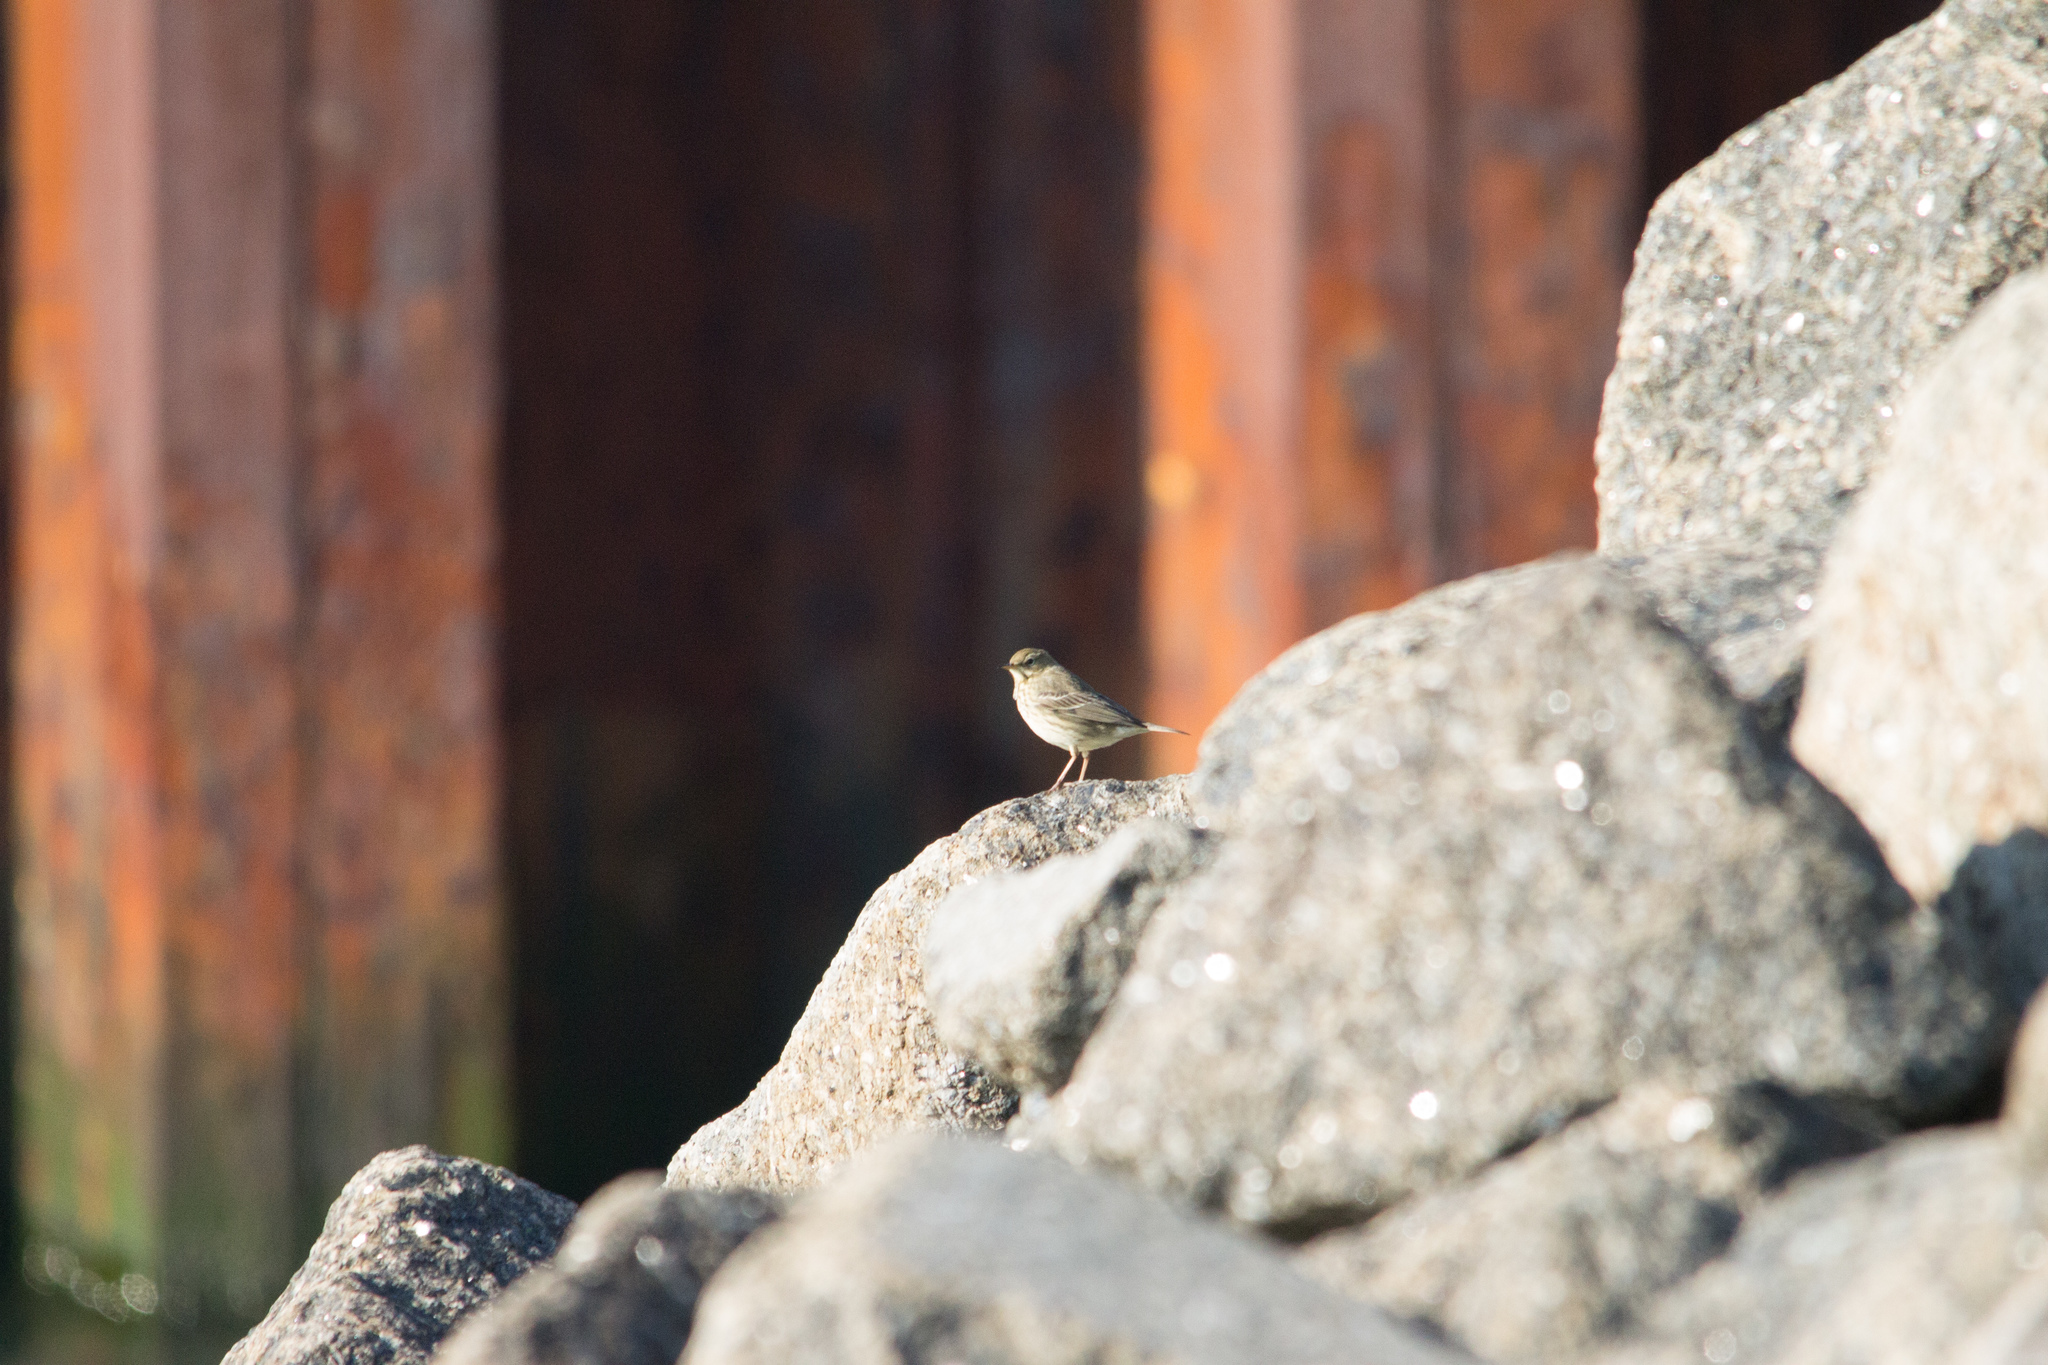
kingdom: Animalia
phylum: Chordata
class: Aves
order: Passeriformes
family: Motacillidae
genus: Anthus
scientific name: Anthus petrosus
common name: Eurasian rock pipit
